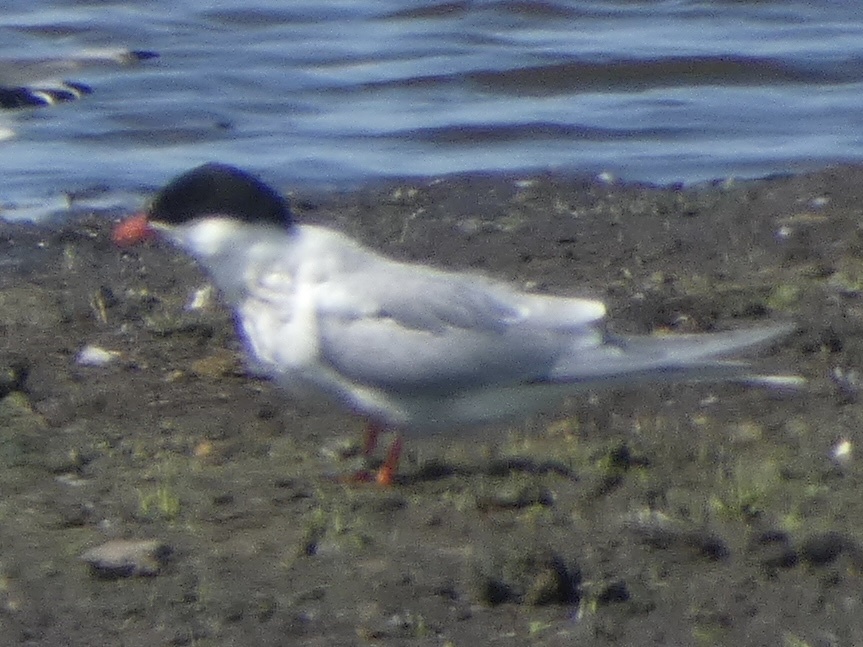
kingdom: Animalia
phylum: Chordata
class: Aves
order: Charadriiformes
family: Laridae
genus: Sterna
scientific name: Sterna hirundo
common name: Common tern
